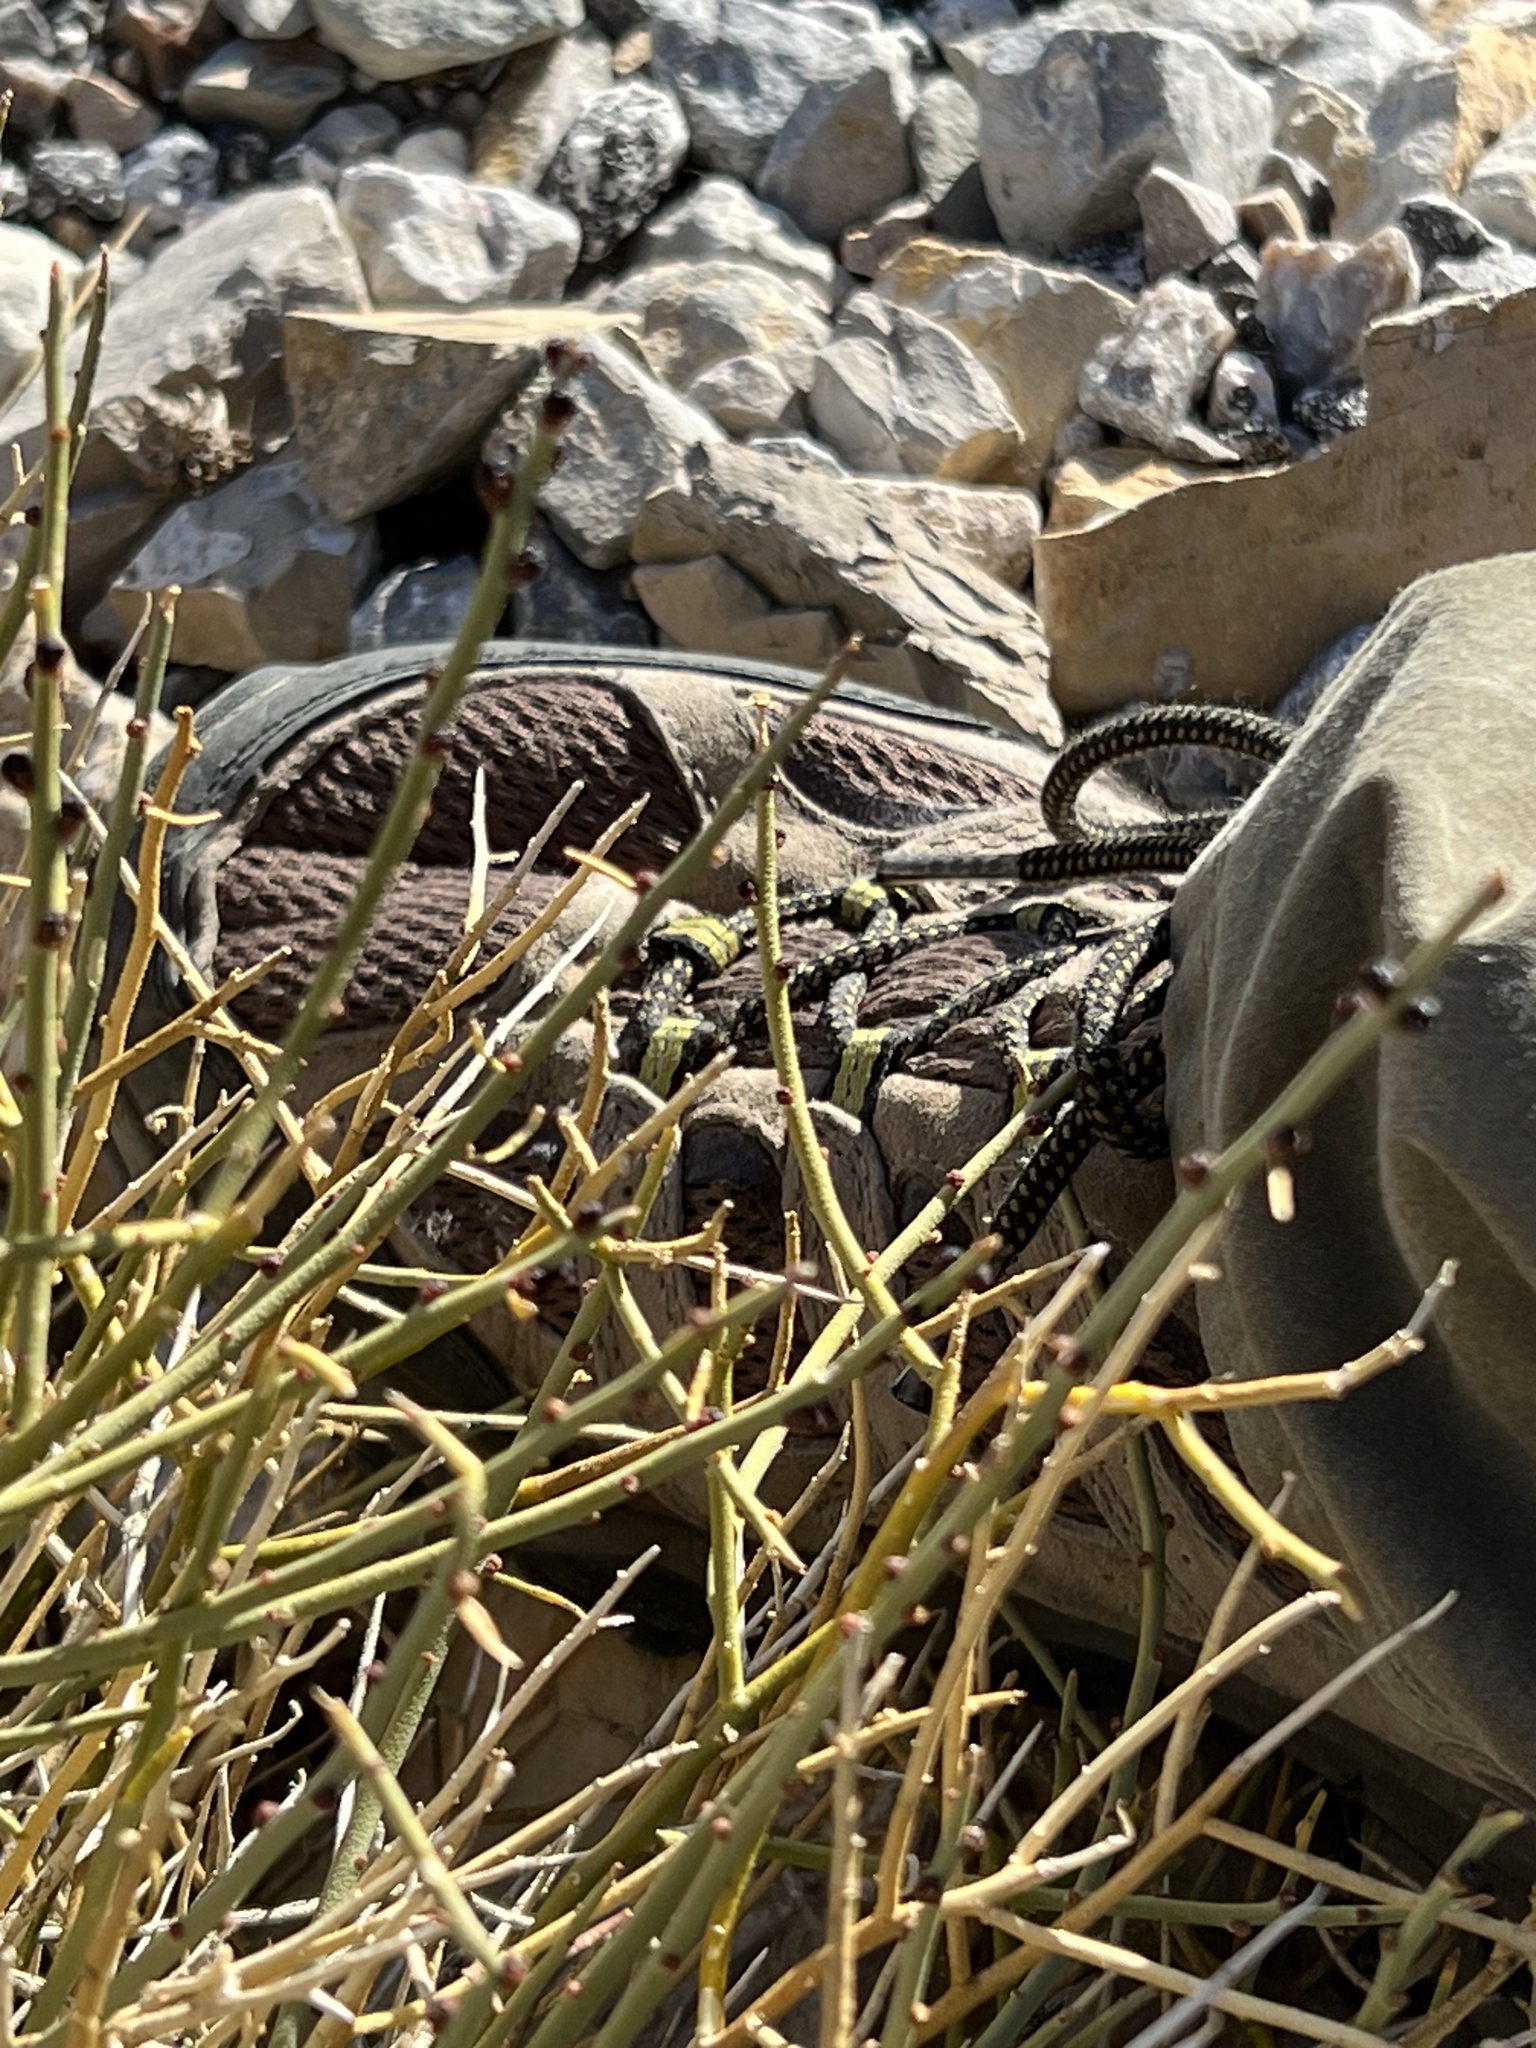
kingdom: Plantae
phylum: Tracheophyta
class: Magnoliopsida
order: Sapindales
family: Rutaceae
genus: Thamnosma
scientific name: Thamnosma montana
